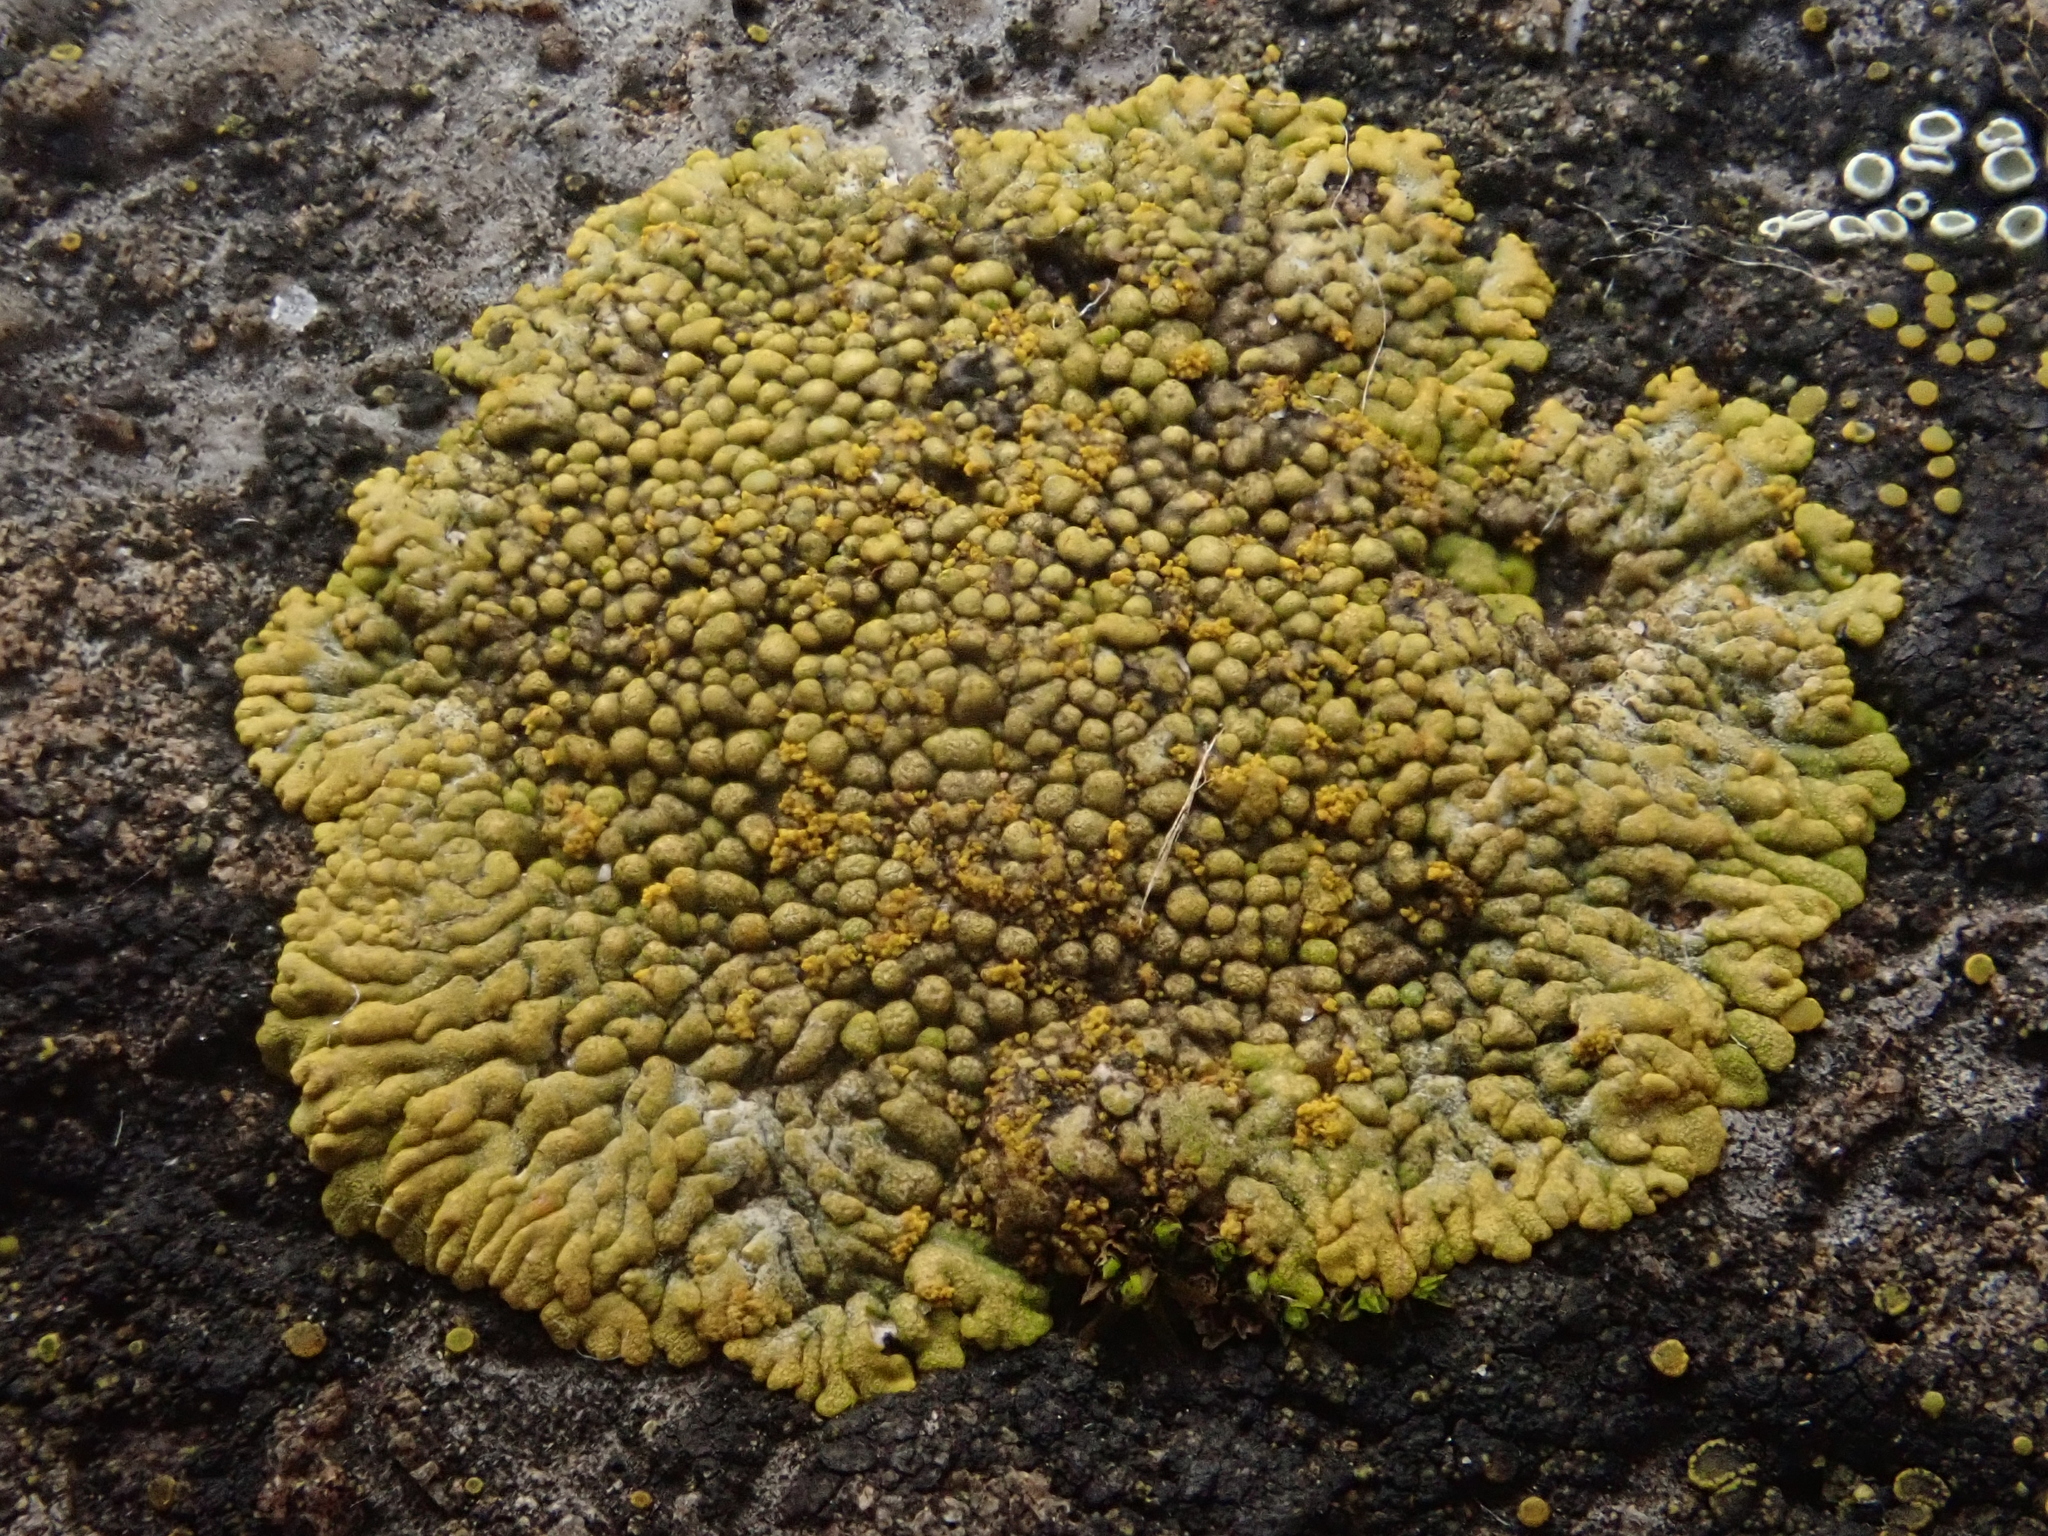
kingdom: Fungi
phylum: Ascomycota
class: Lecanoromycetes
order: Teloschistales
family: Teloschistaceae
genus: Calogaya
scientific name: Calogaya decipiens
